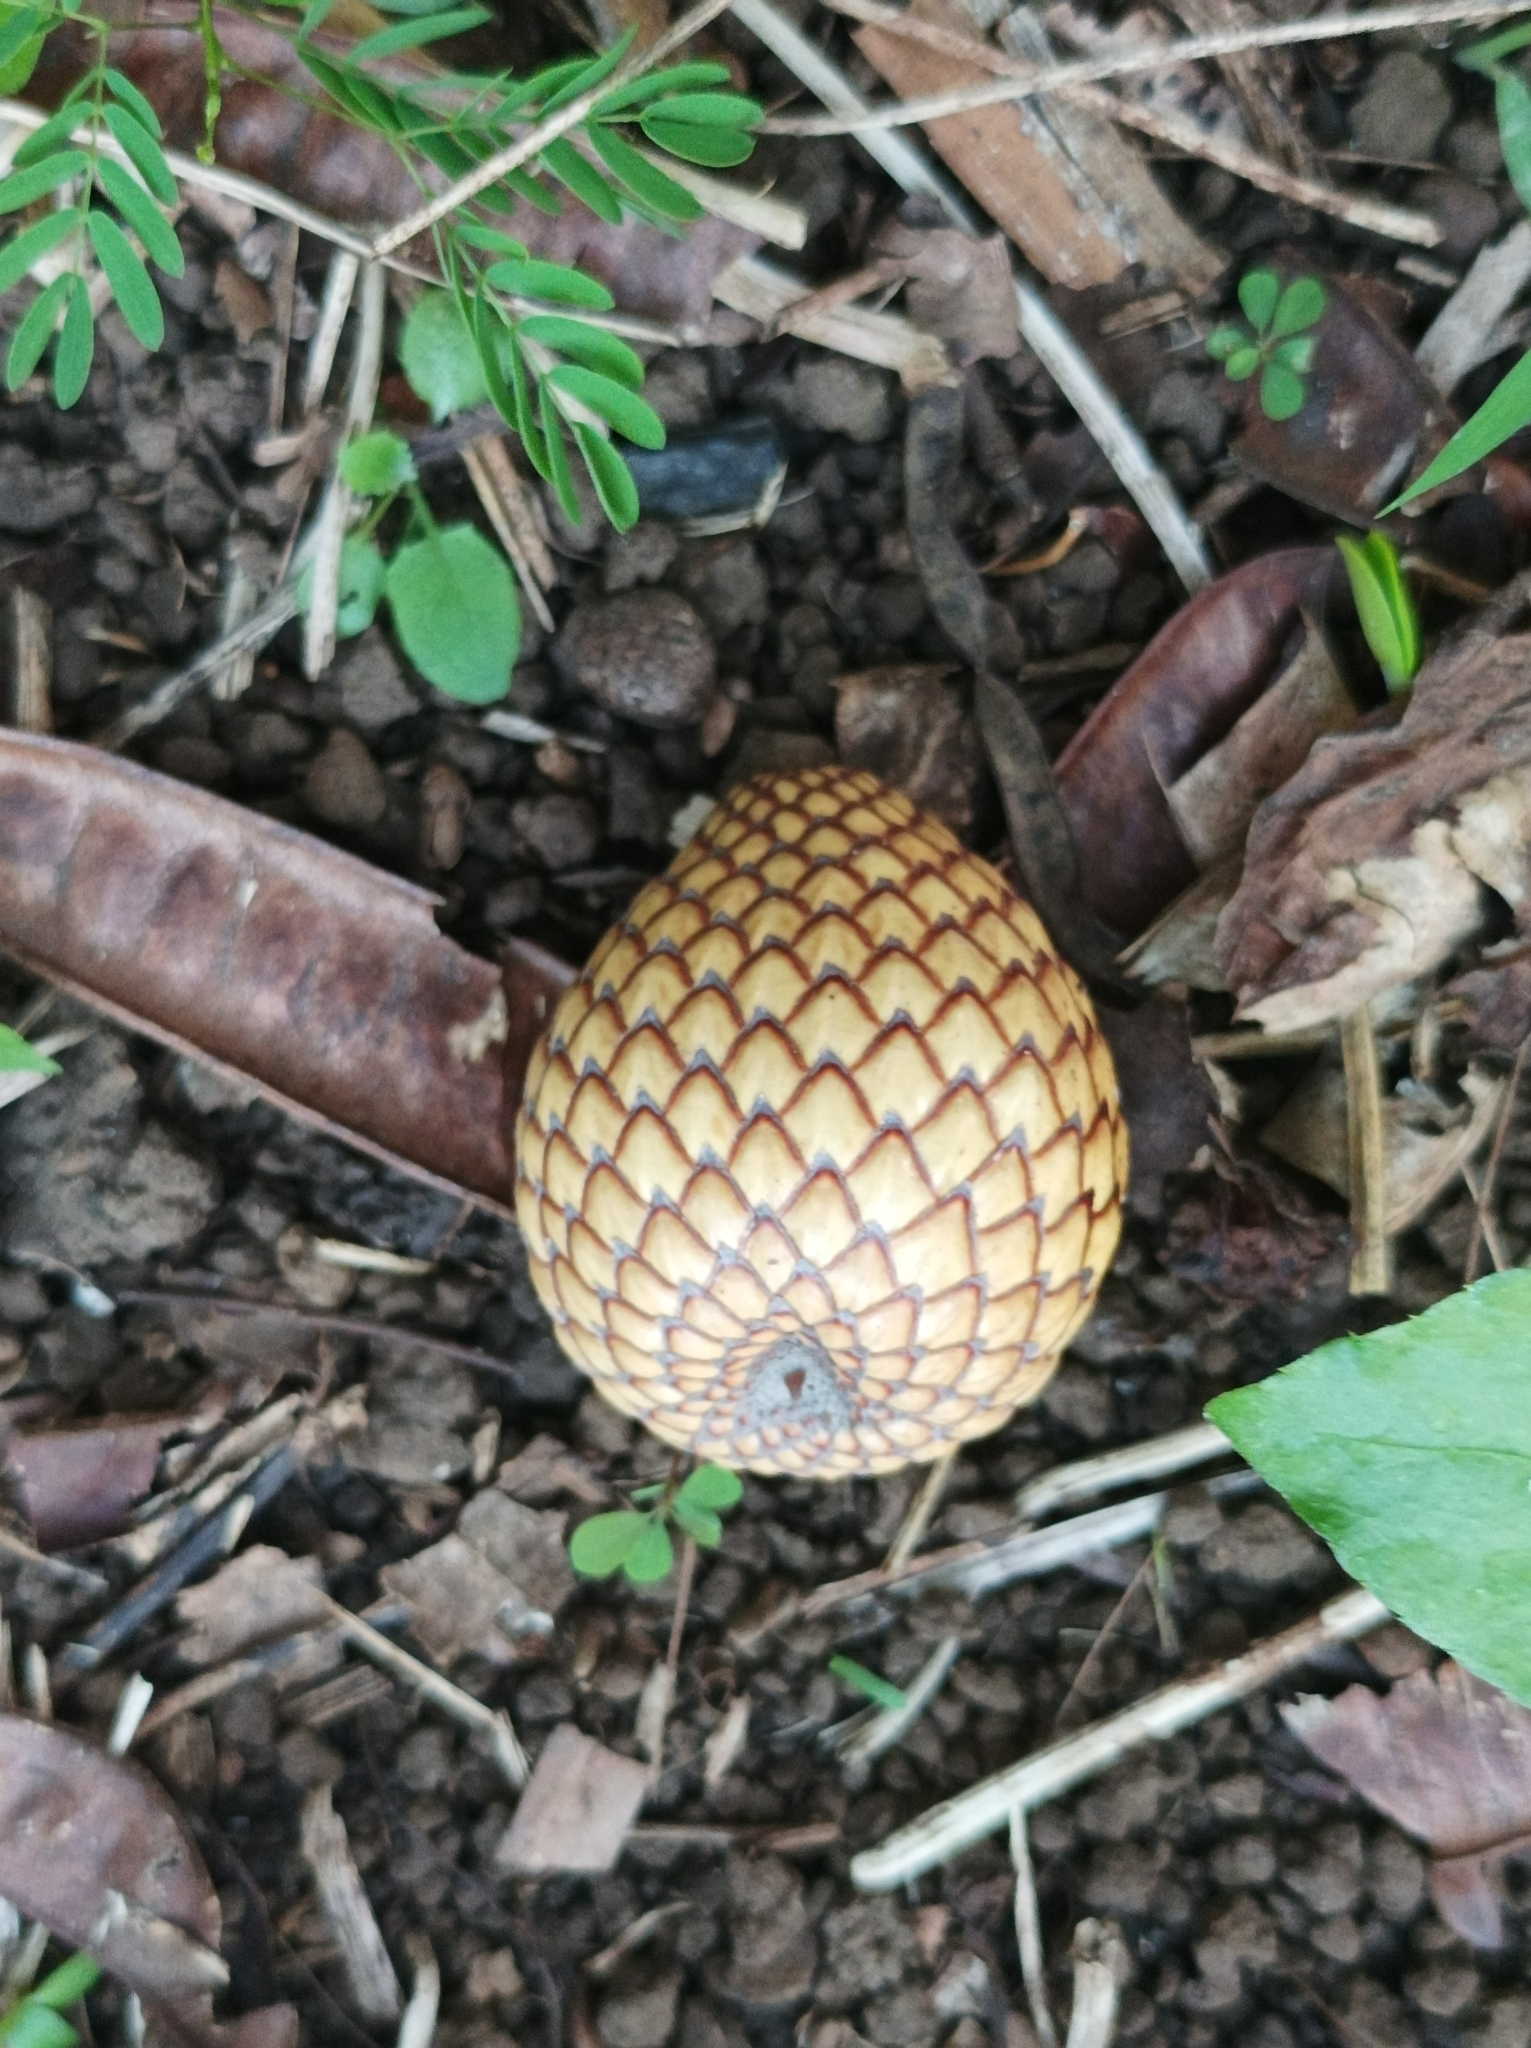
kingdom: Plantae
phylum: Tracheophyta
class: Liliopsida
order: Arecales
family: Arecaceae
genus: Metroxylon
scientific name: Metroxylon warburgii
